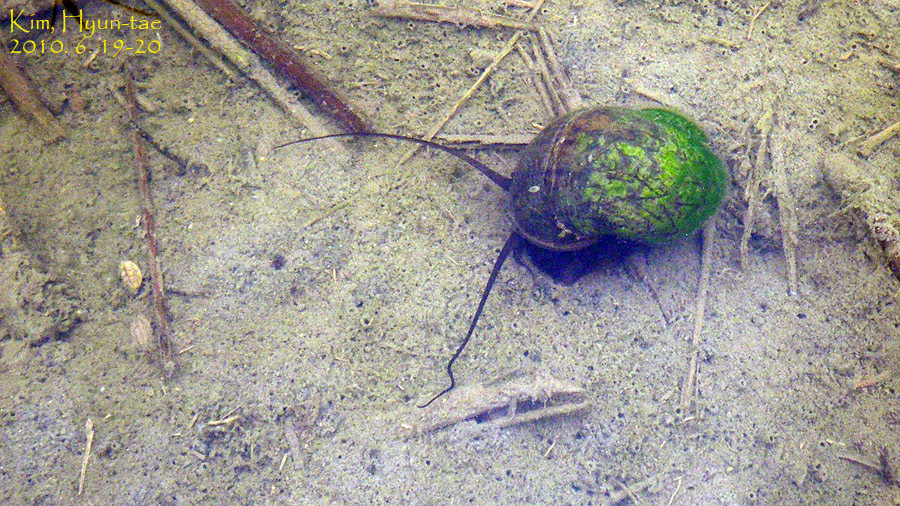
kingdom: Animalia
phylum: Mollusca
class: Gastropoda
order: Architaenioglossa
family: Ampullariidae
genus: Pomacea
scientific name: Pomacea canaliculata
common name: Channeled applesnail
